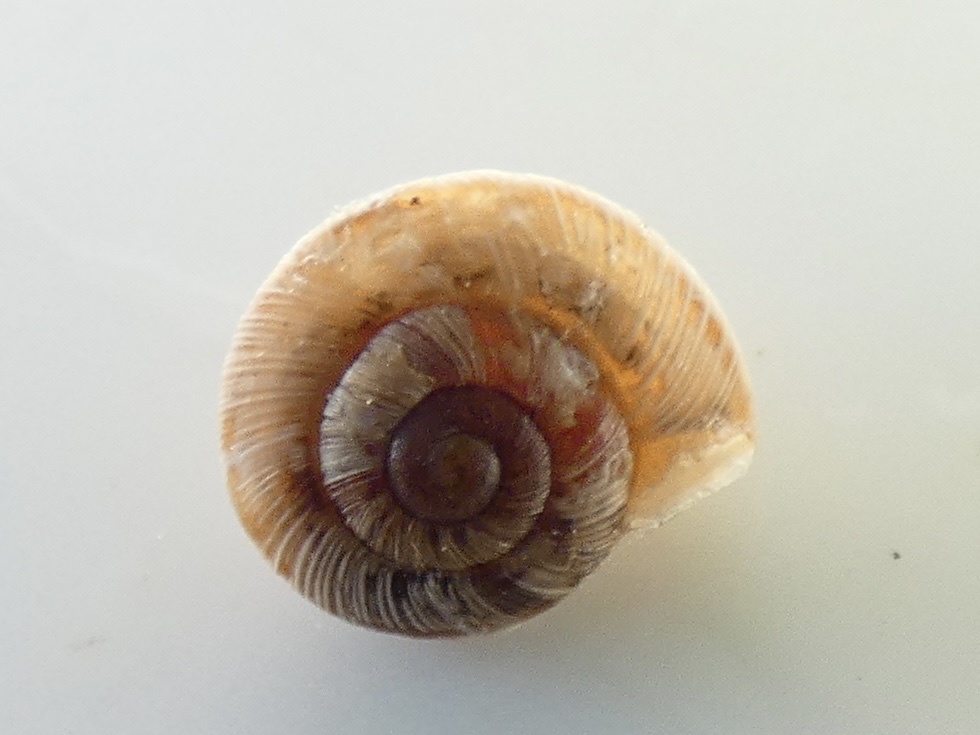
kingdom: Animalia
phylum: Mollusca
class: Gastropoda
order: Stylommatophora
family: Geomitridae
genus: Xeroplexa
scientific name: Xeroplexa intersecta
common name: Wrinkled snail
